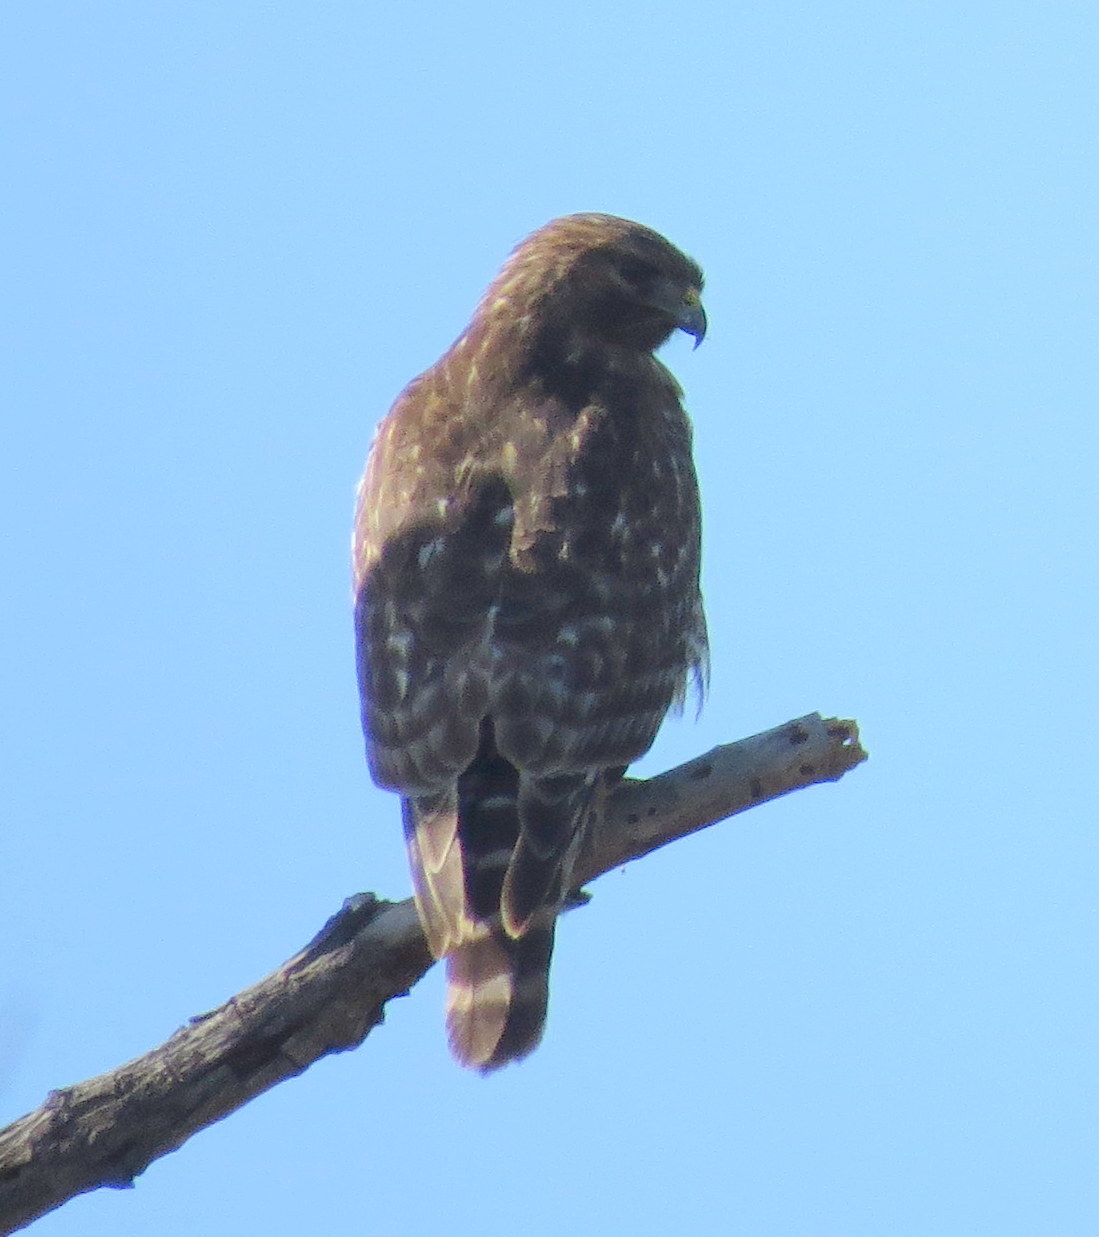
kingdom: Animalia
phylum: Chordata
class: Aves
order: Accipitriformes
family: Accipitridae
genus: Buteo
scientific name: Buteo lineatus
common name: Red-shouldered hawk
